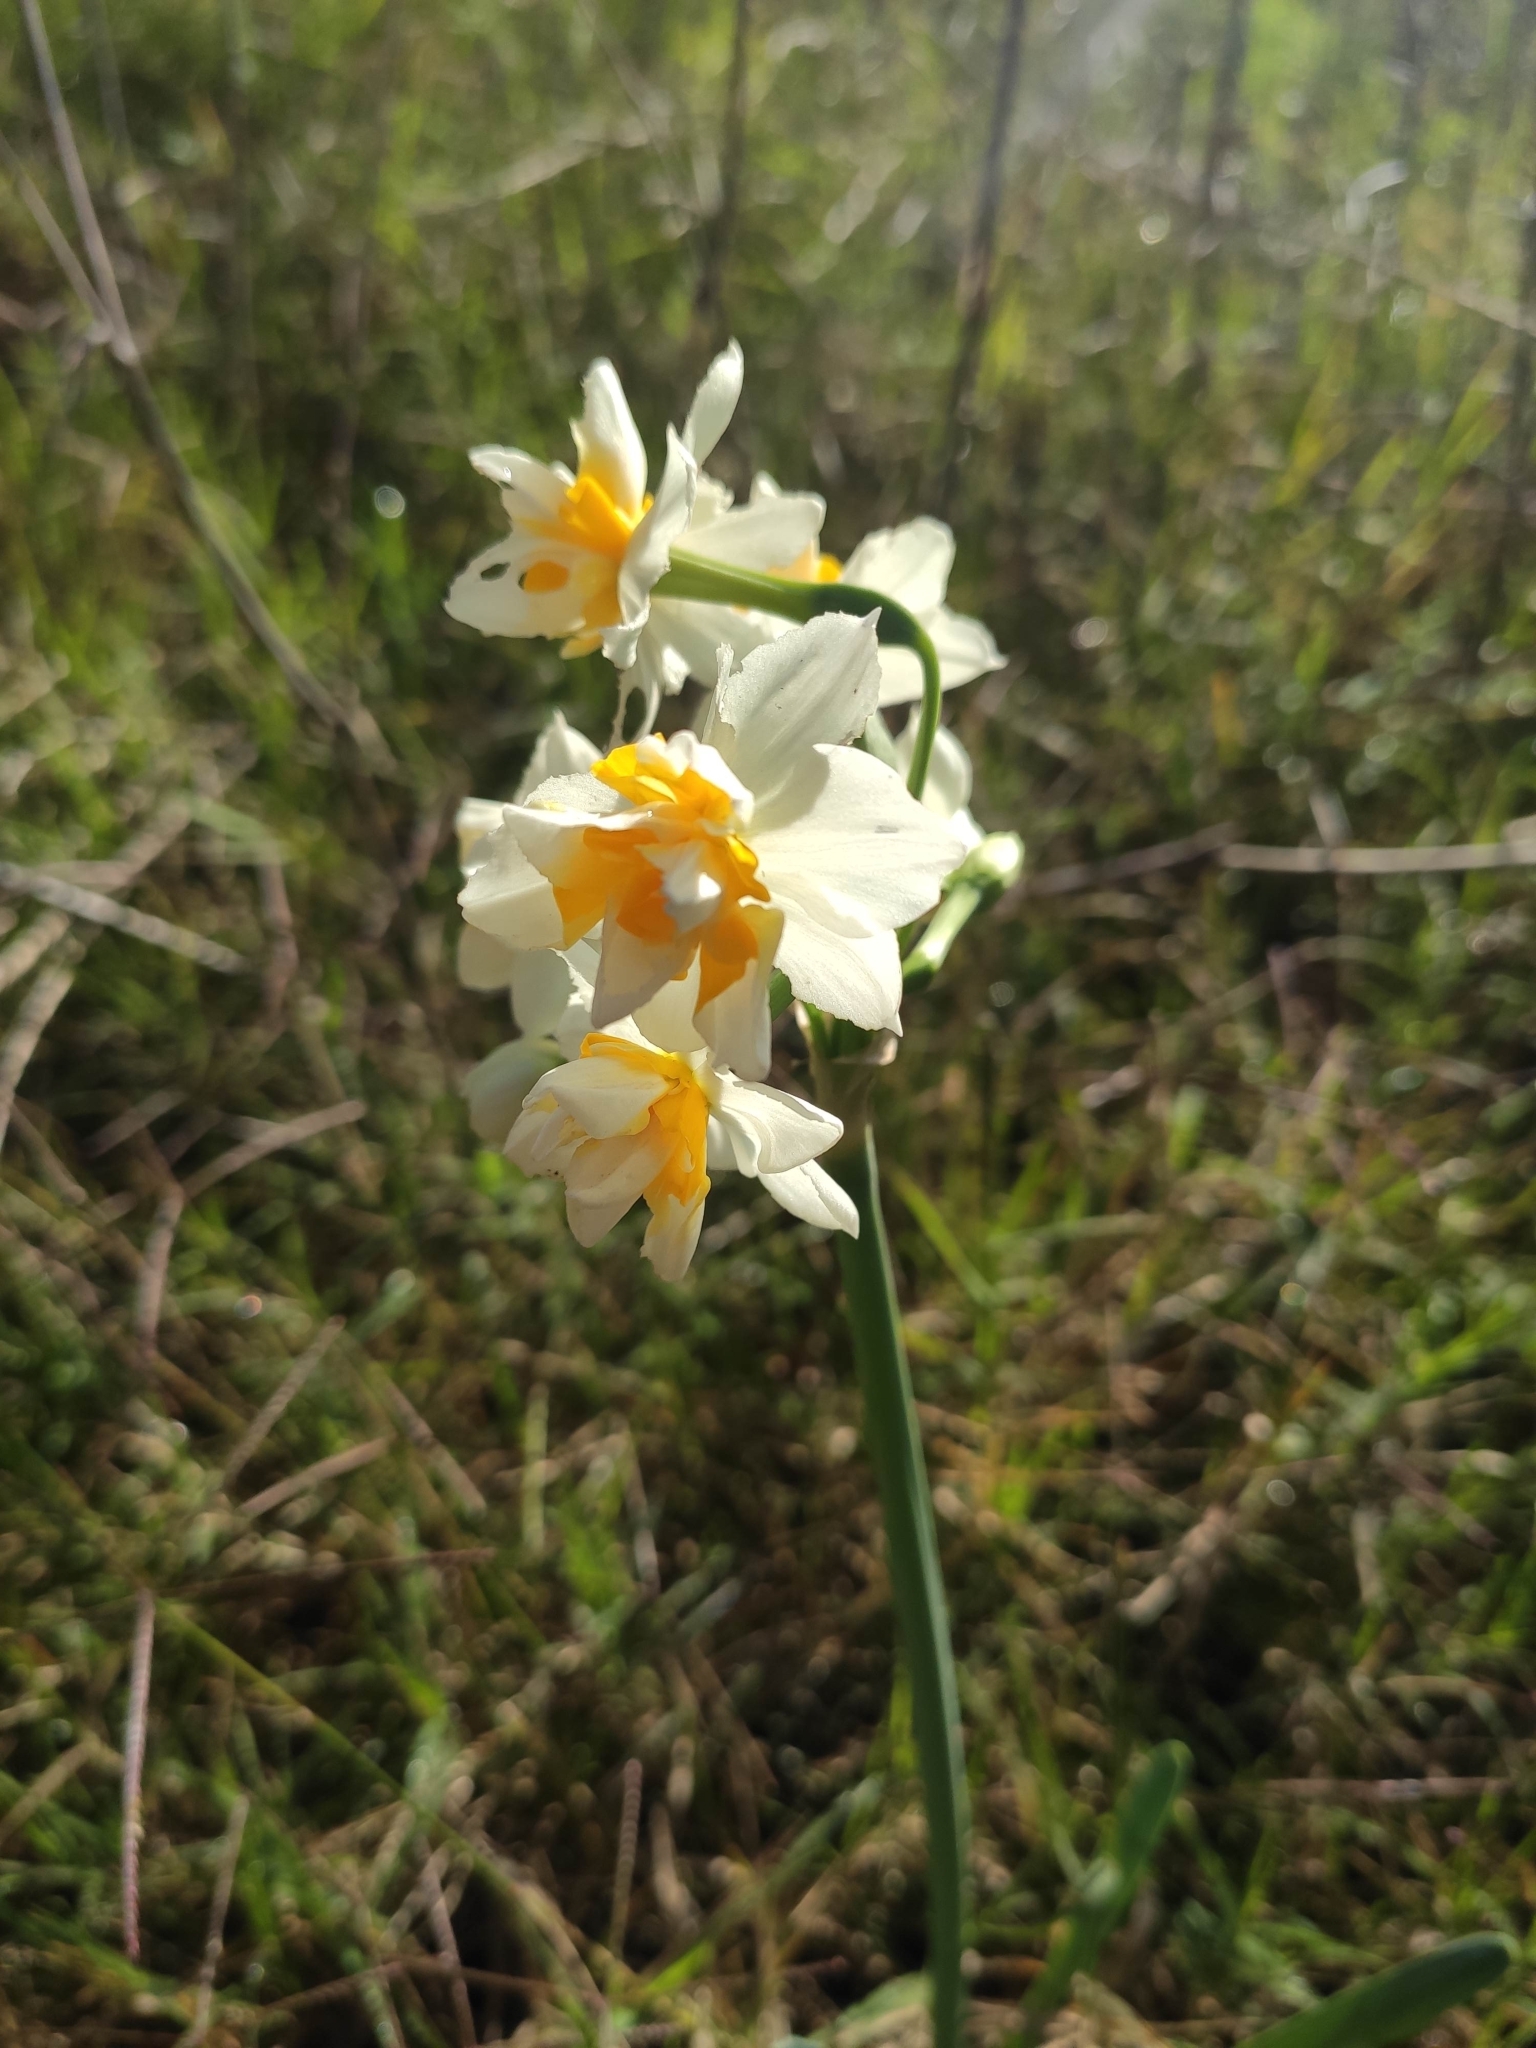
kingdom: Plantae
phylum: Tracheophyta
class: Liliopsida
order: Asparagales
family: Amaryllidaceae
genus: Narcissus
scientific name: Narcissus tazetta
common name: Bunch-flowered daffodil
